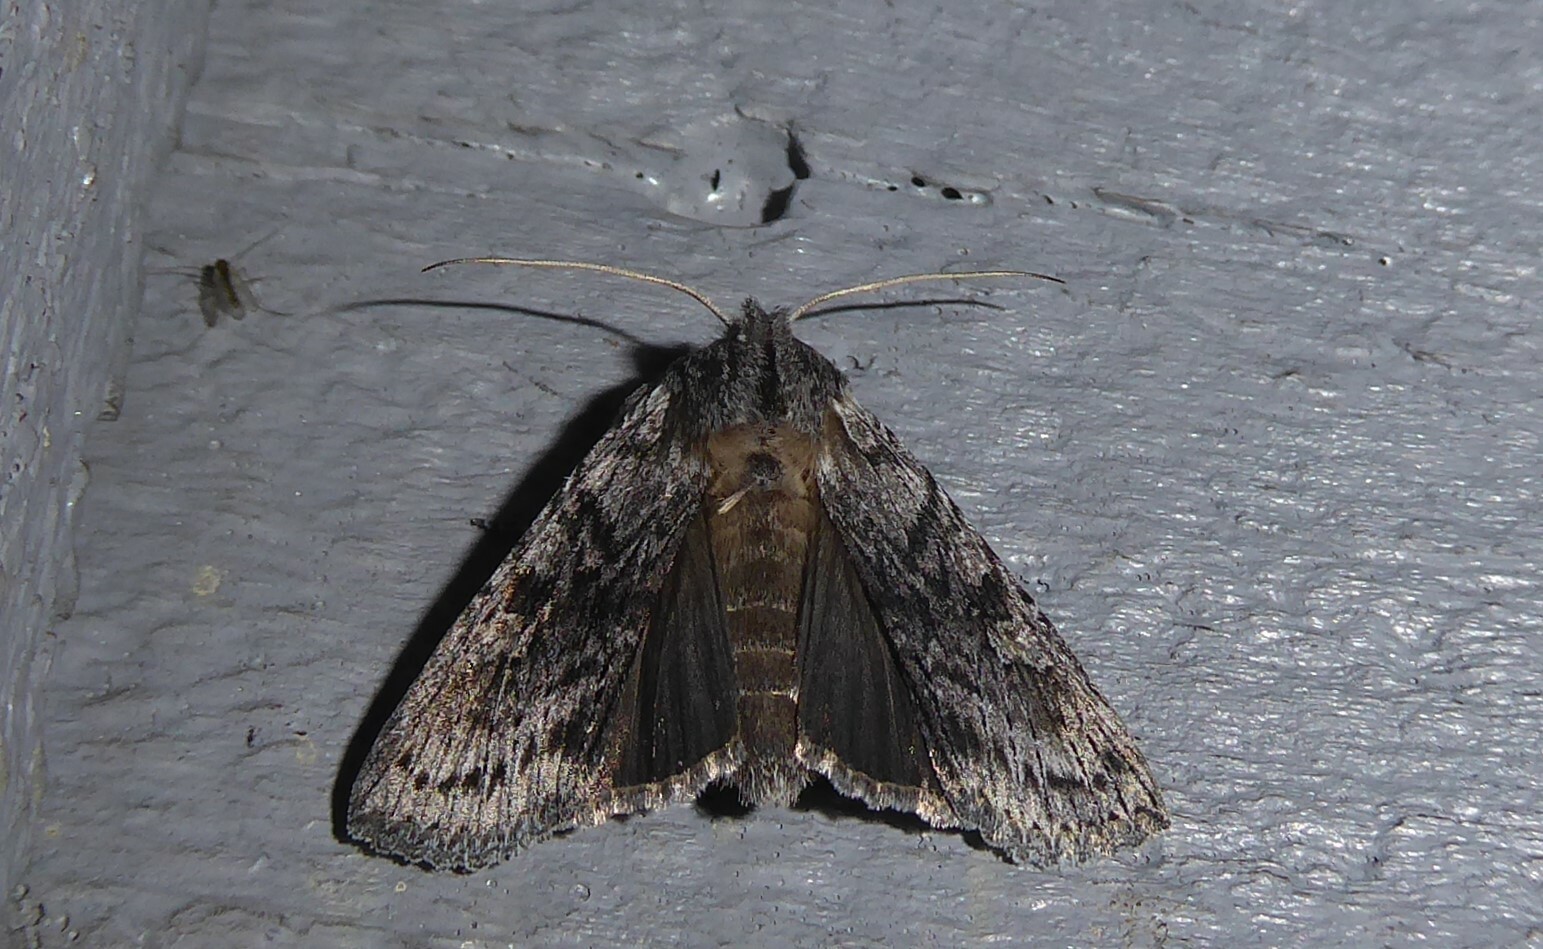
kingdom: Animalia
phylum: Arthropoda
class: Insecta
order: Lepidoptera
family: Noctuidae
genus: Physetica
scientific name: Physetica phricias
